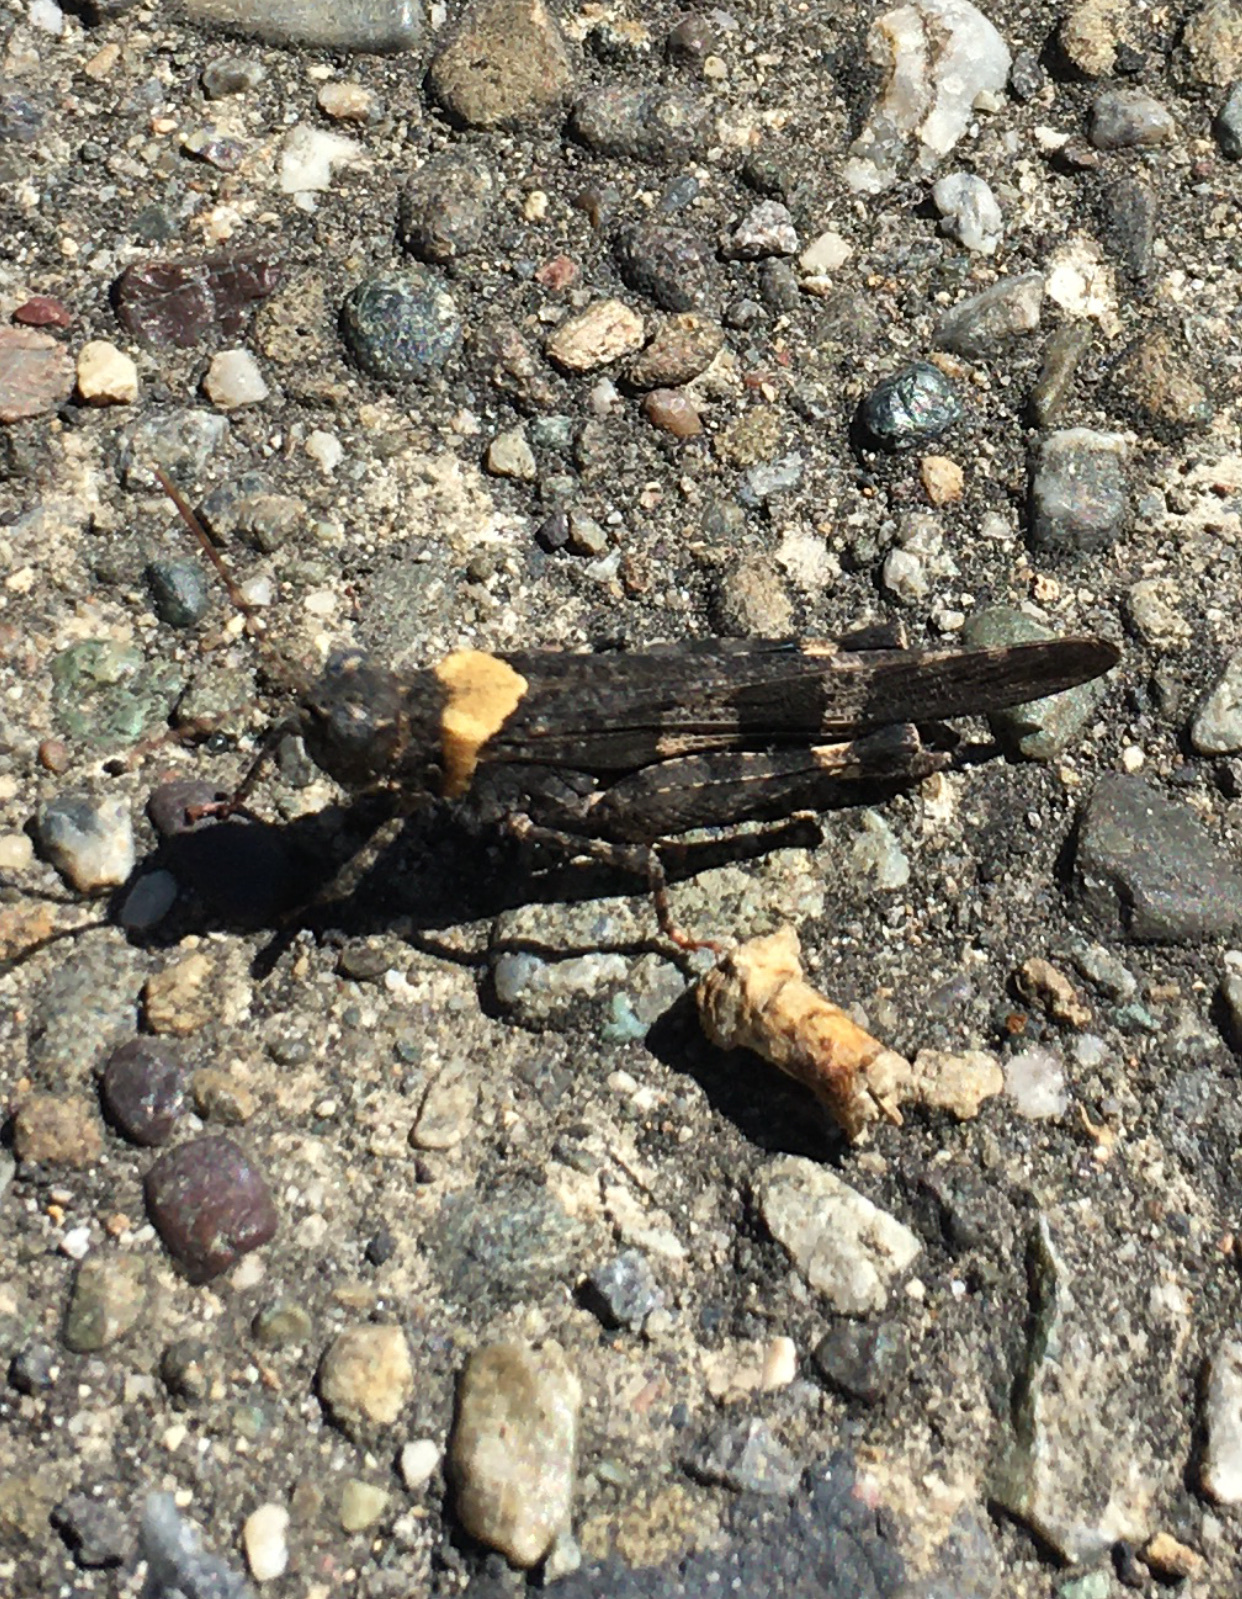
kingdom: Animalia
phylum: Arthropoda
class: Insecta
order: Orthoptera
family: Acrididae
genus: Trimerotropis
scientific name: Trimerotropis fontana
